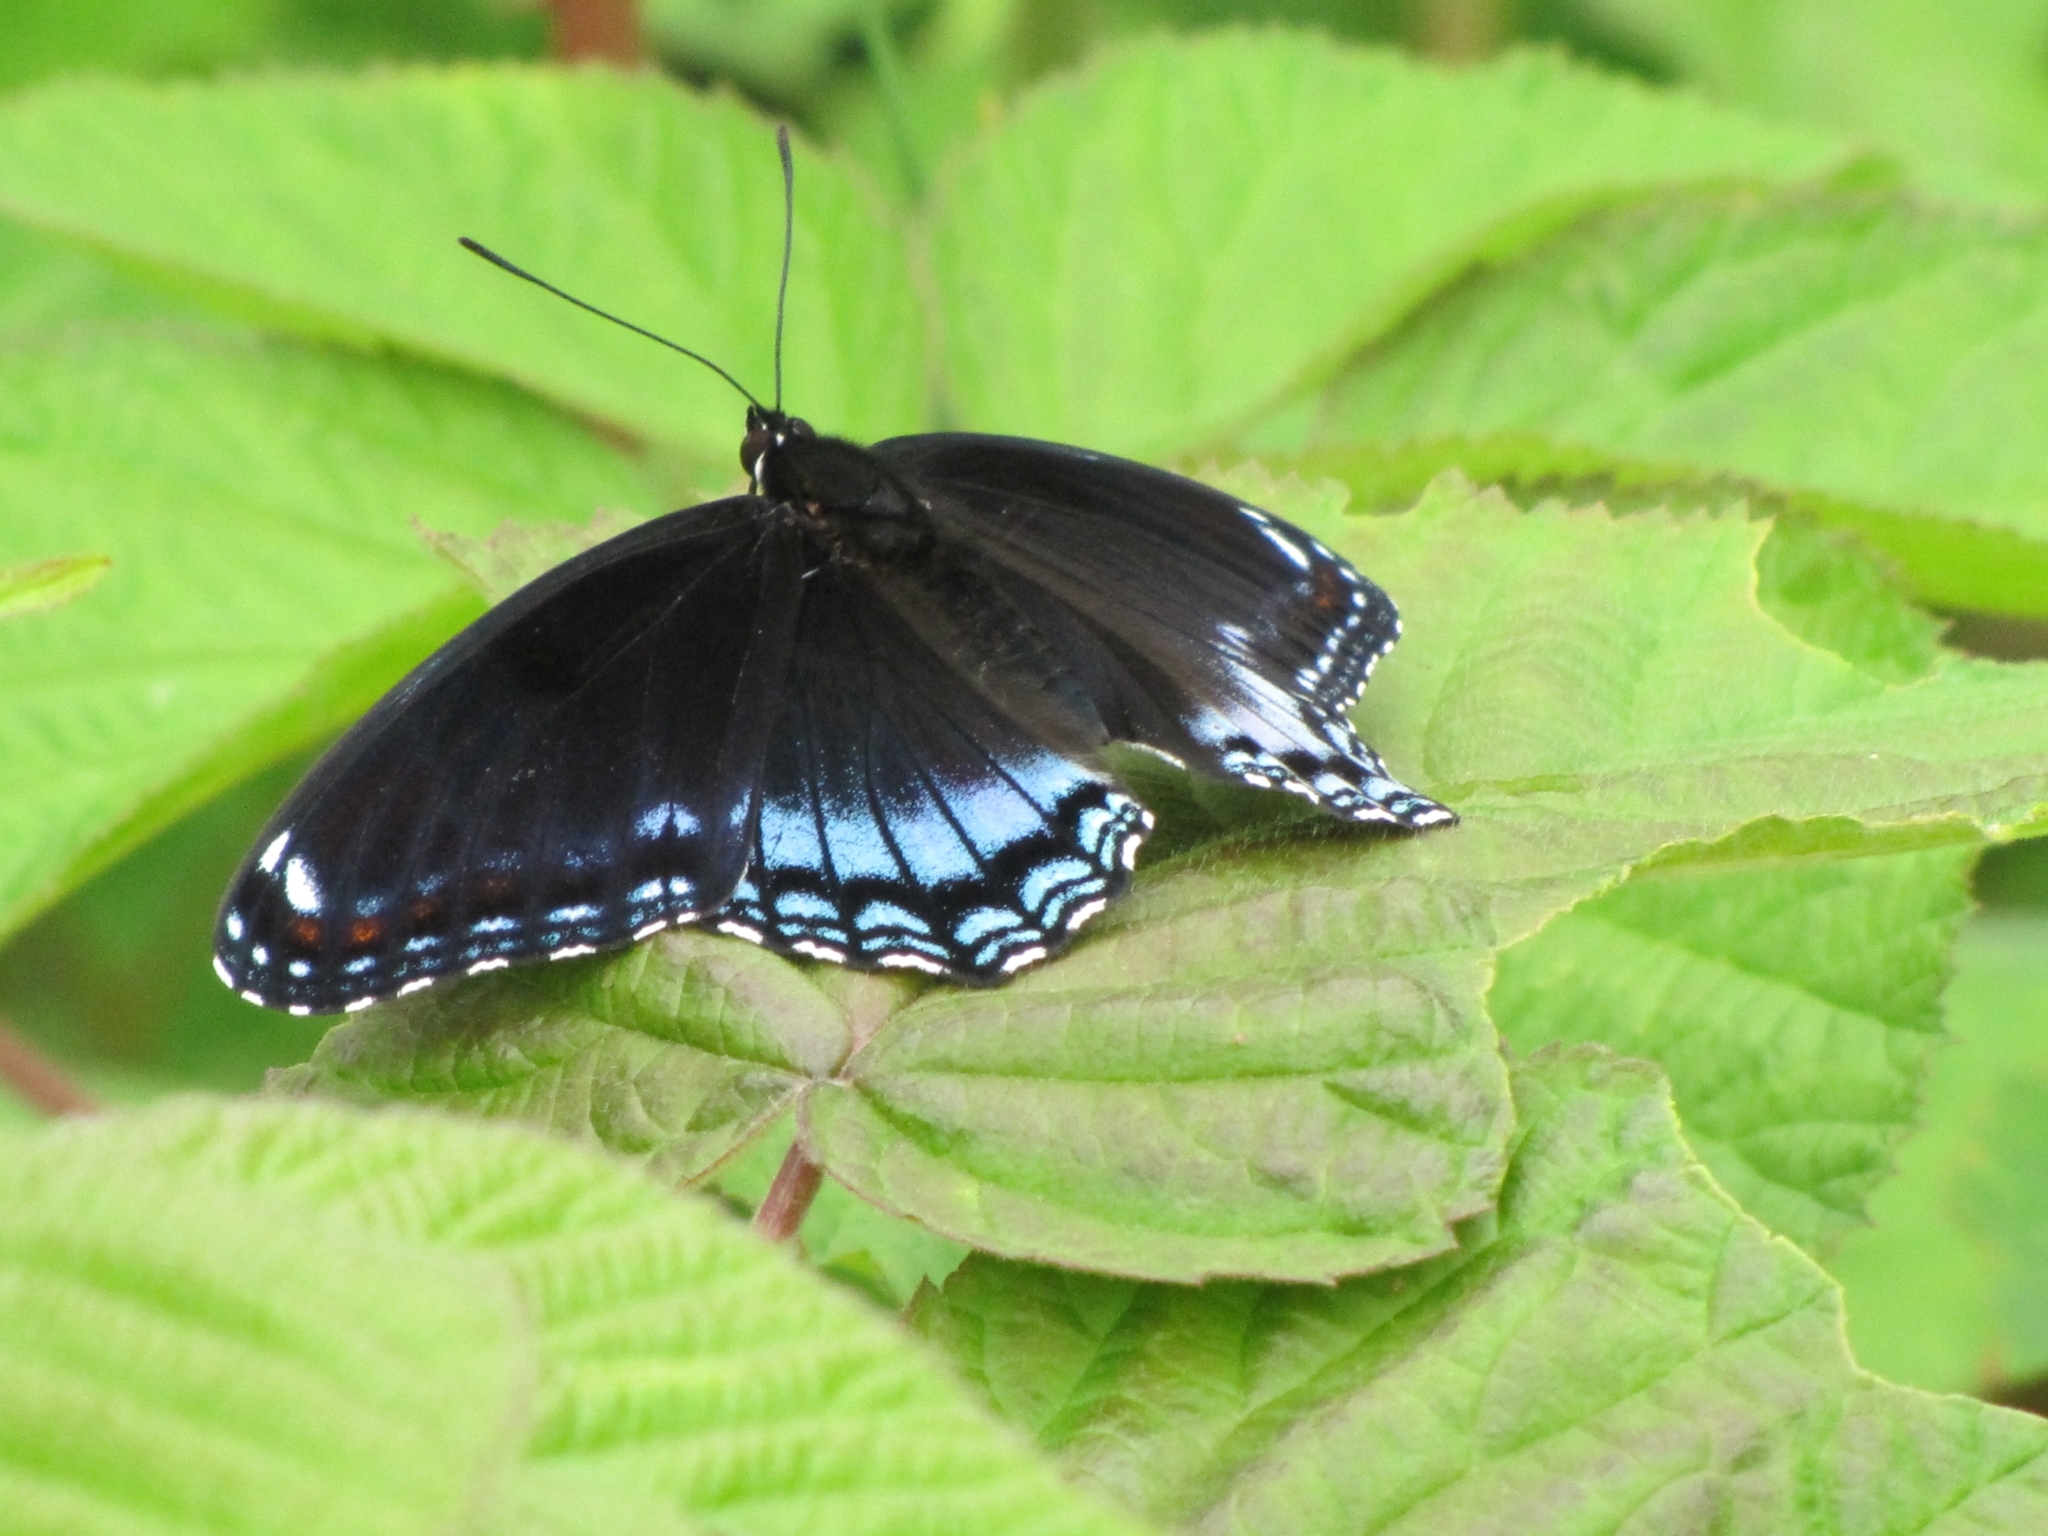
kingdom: Animalia
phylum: Arthropoda
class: Insecta
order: Lepidoptera
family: Nymphalidae
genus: Limenitis
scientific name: Limenitis astyanax
